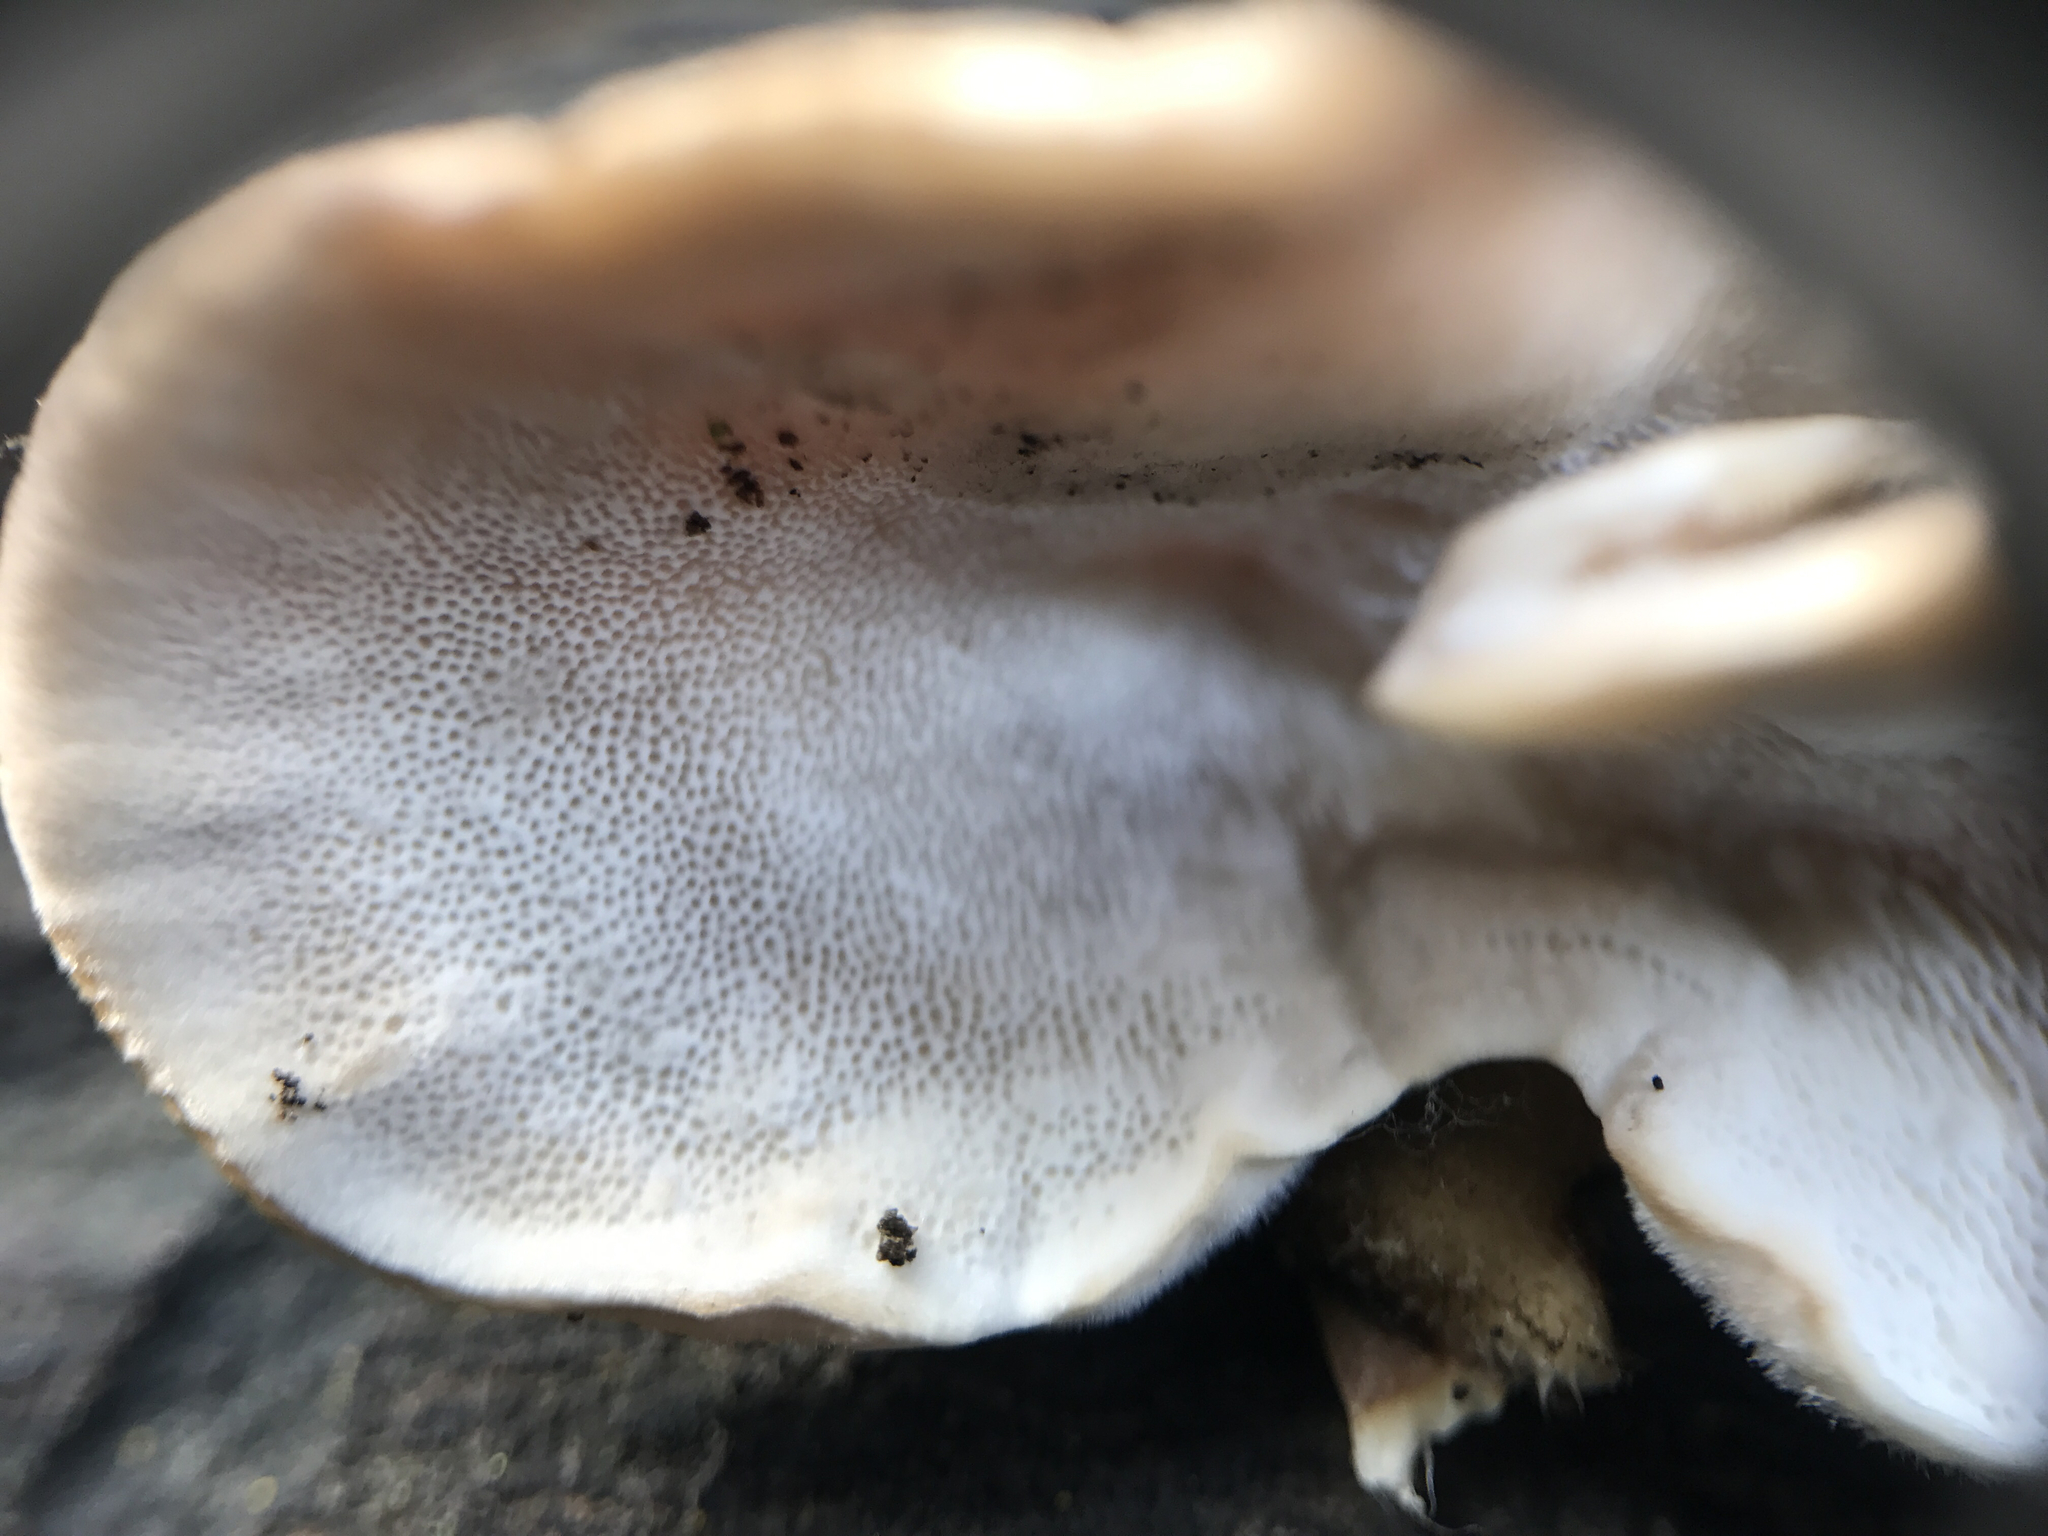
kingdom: Fungi
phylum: Basidiomycota
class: Agaricomycetes
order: Polyporales
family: Polyporaceae
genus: Trametes
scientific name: Trametes versicolor
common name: Turkeytail
